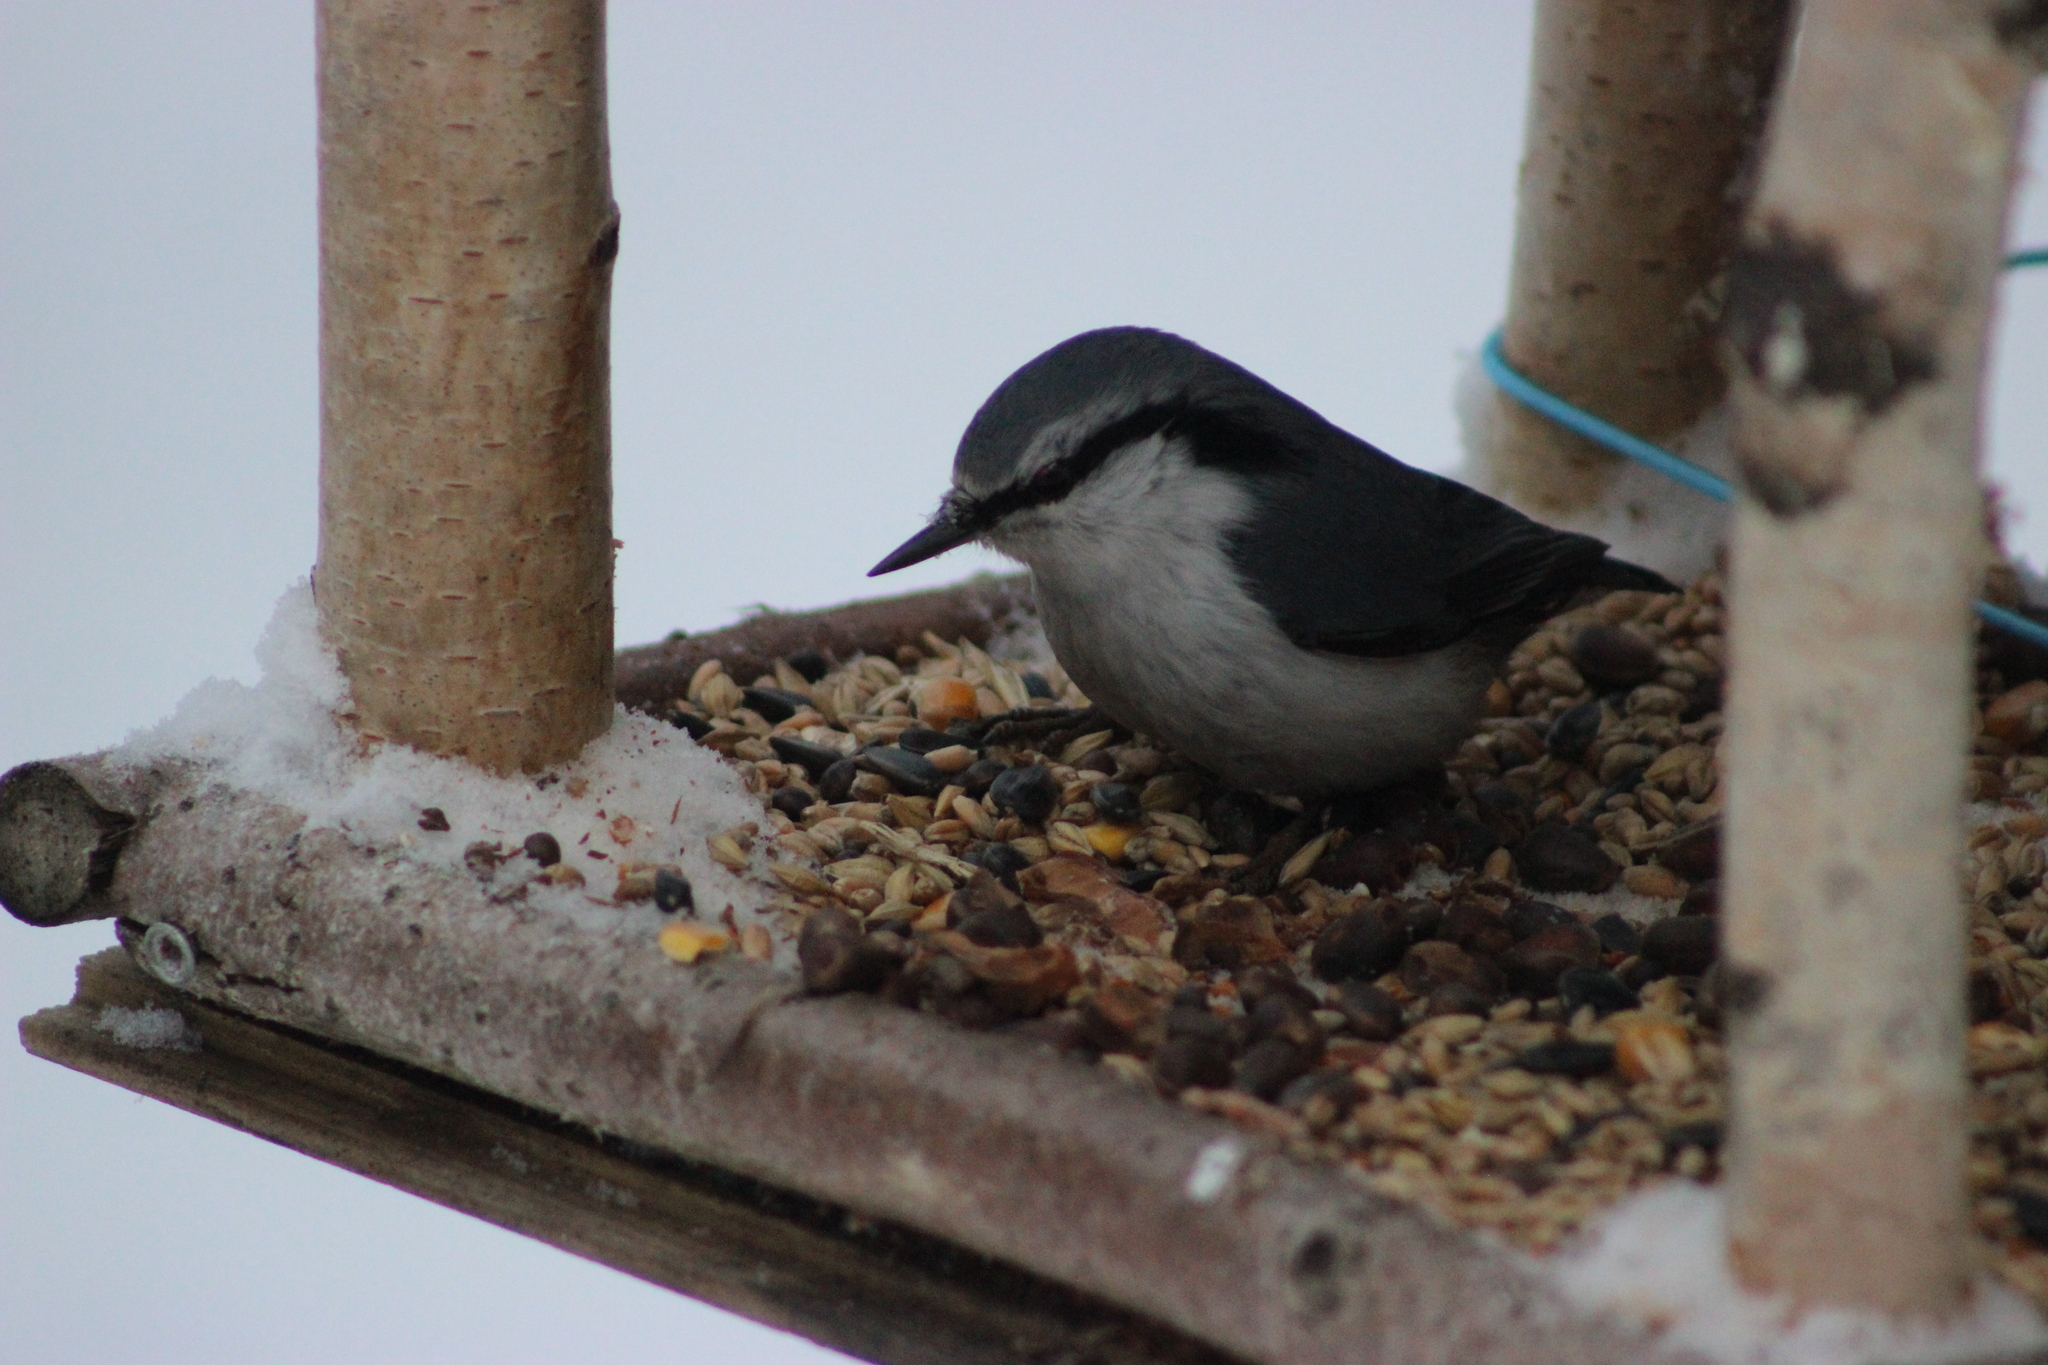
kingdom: Animalia
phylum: Chordata
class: Aves
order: Passeriformes
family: Sittidae
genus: Sitta
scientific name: Sitta europaea
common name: Eurasian nuthatch
